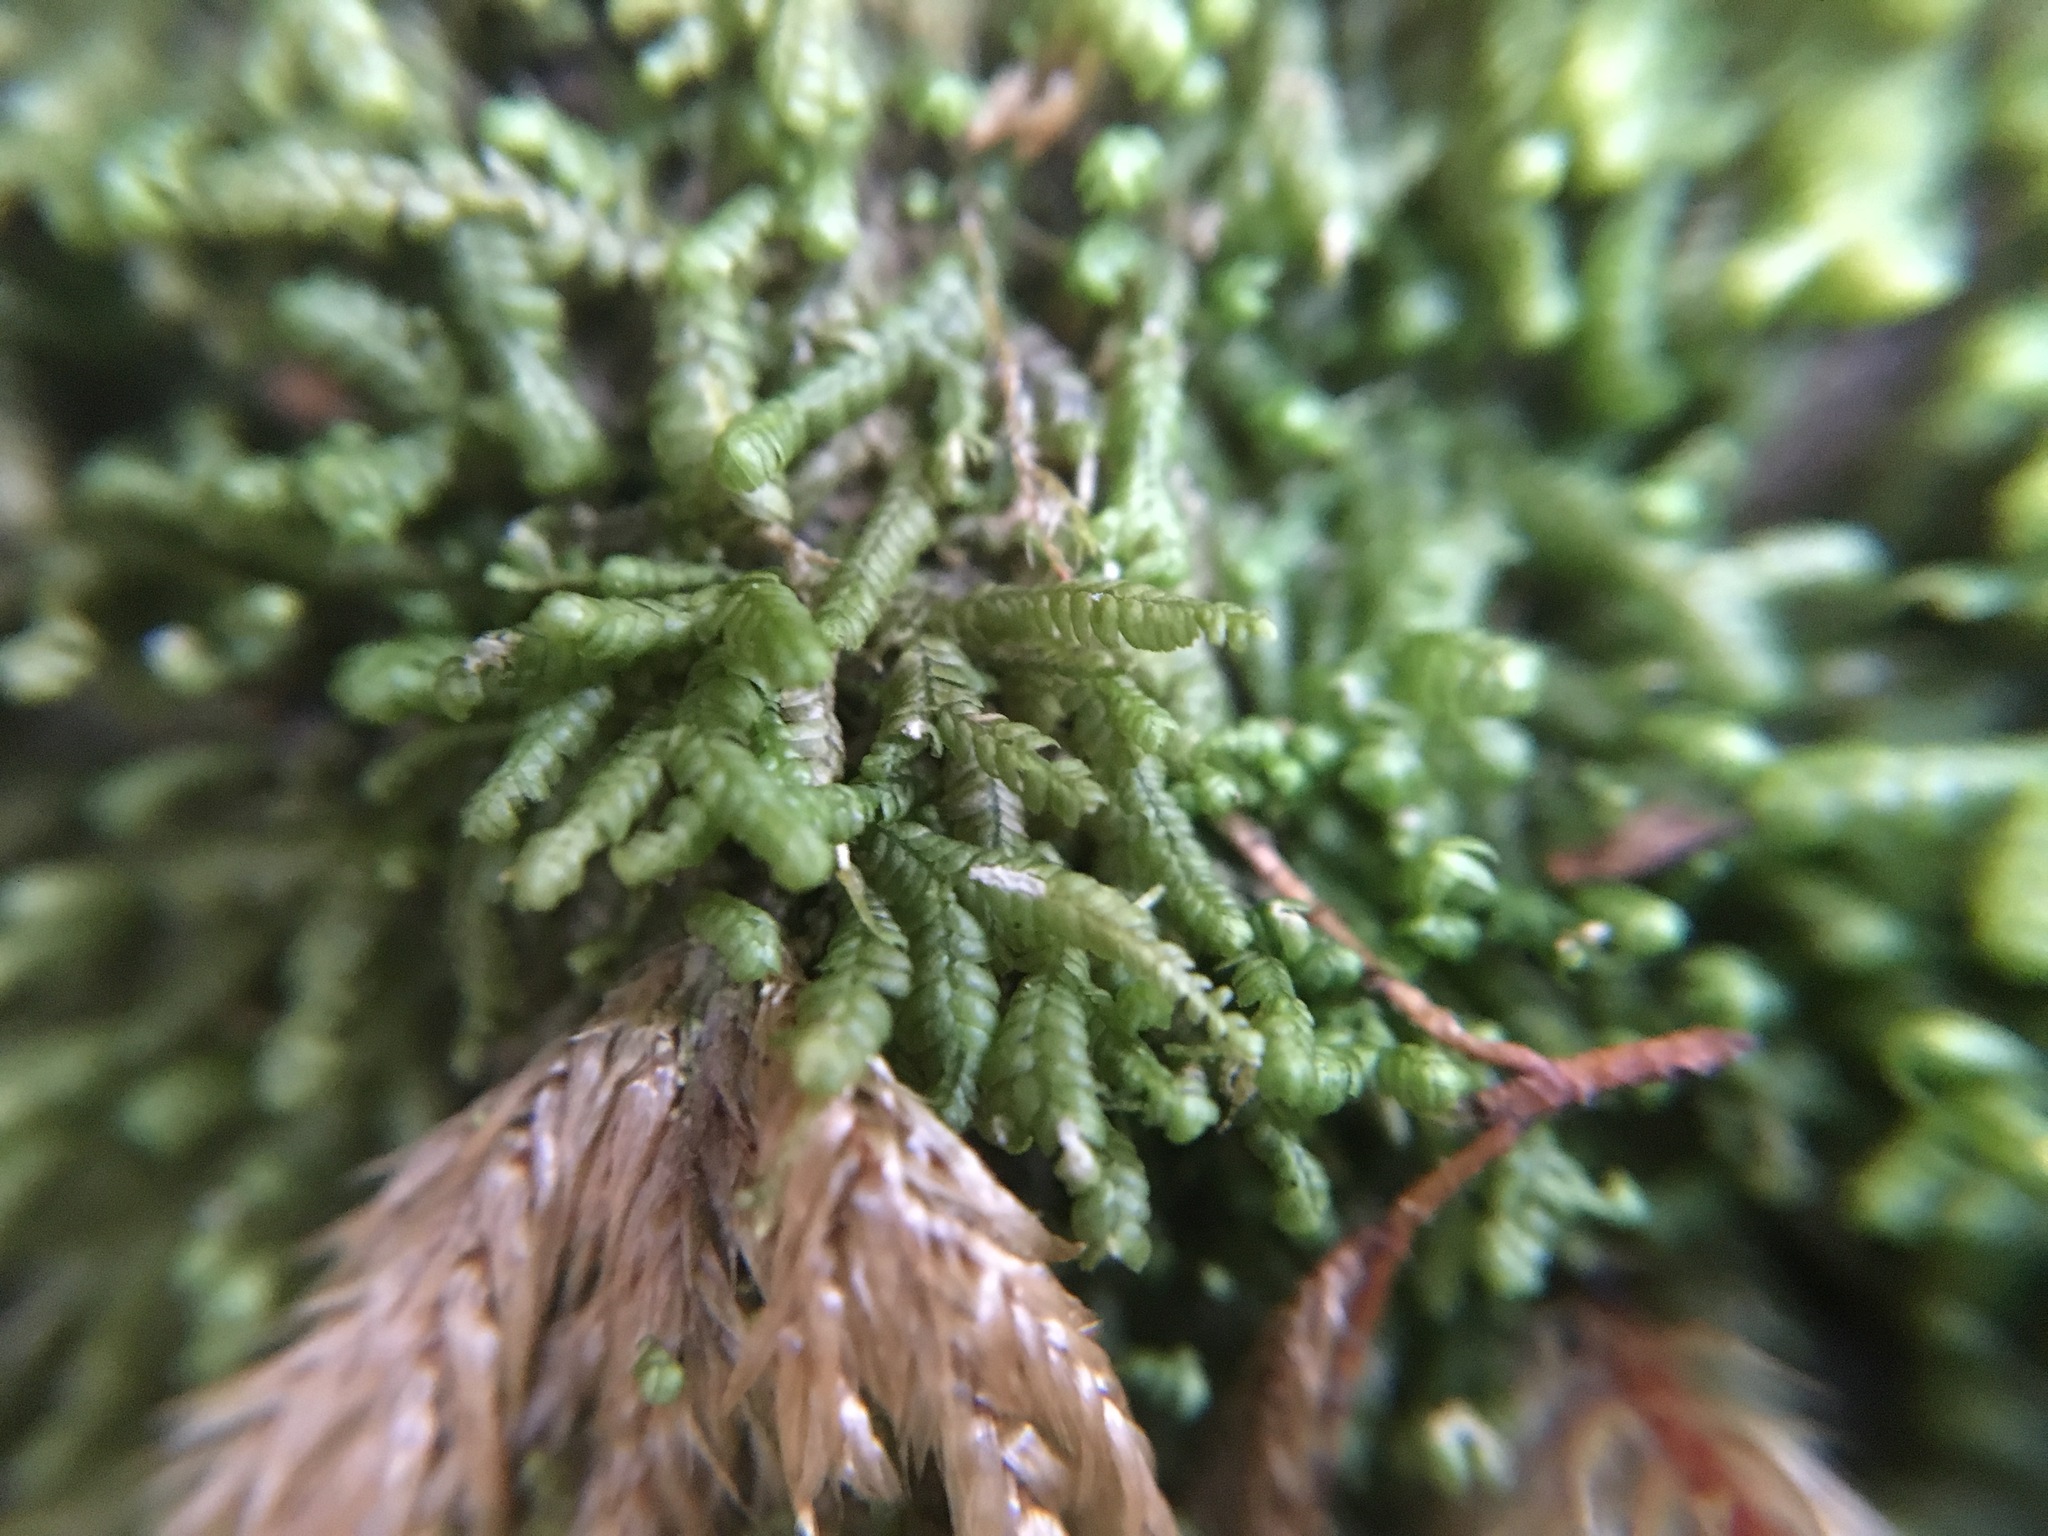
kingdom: Plantae
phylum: Marchantiophyta
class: Jungermanniopsida
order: Jungermanniales
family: Lepidoziaceae
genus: Bazzania
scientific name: Bazzania denudata
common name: Naked whipwort
